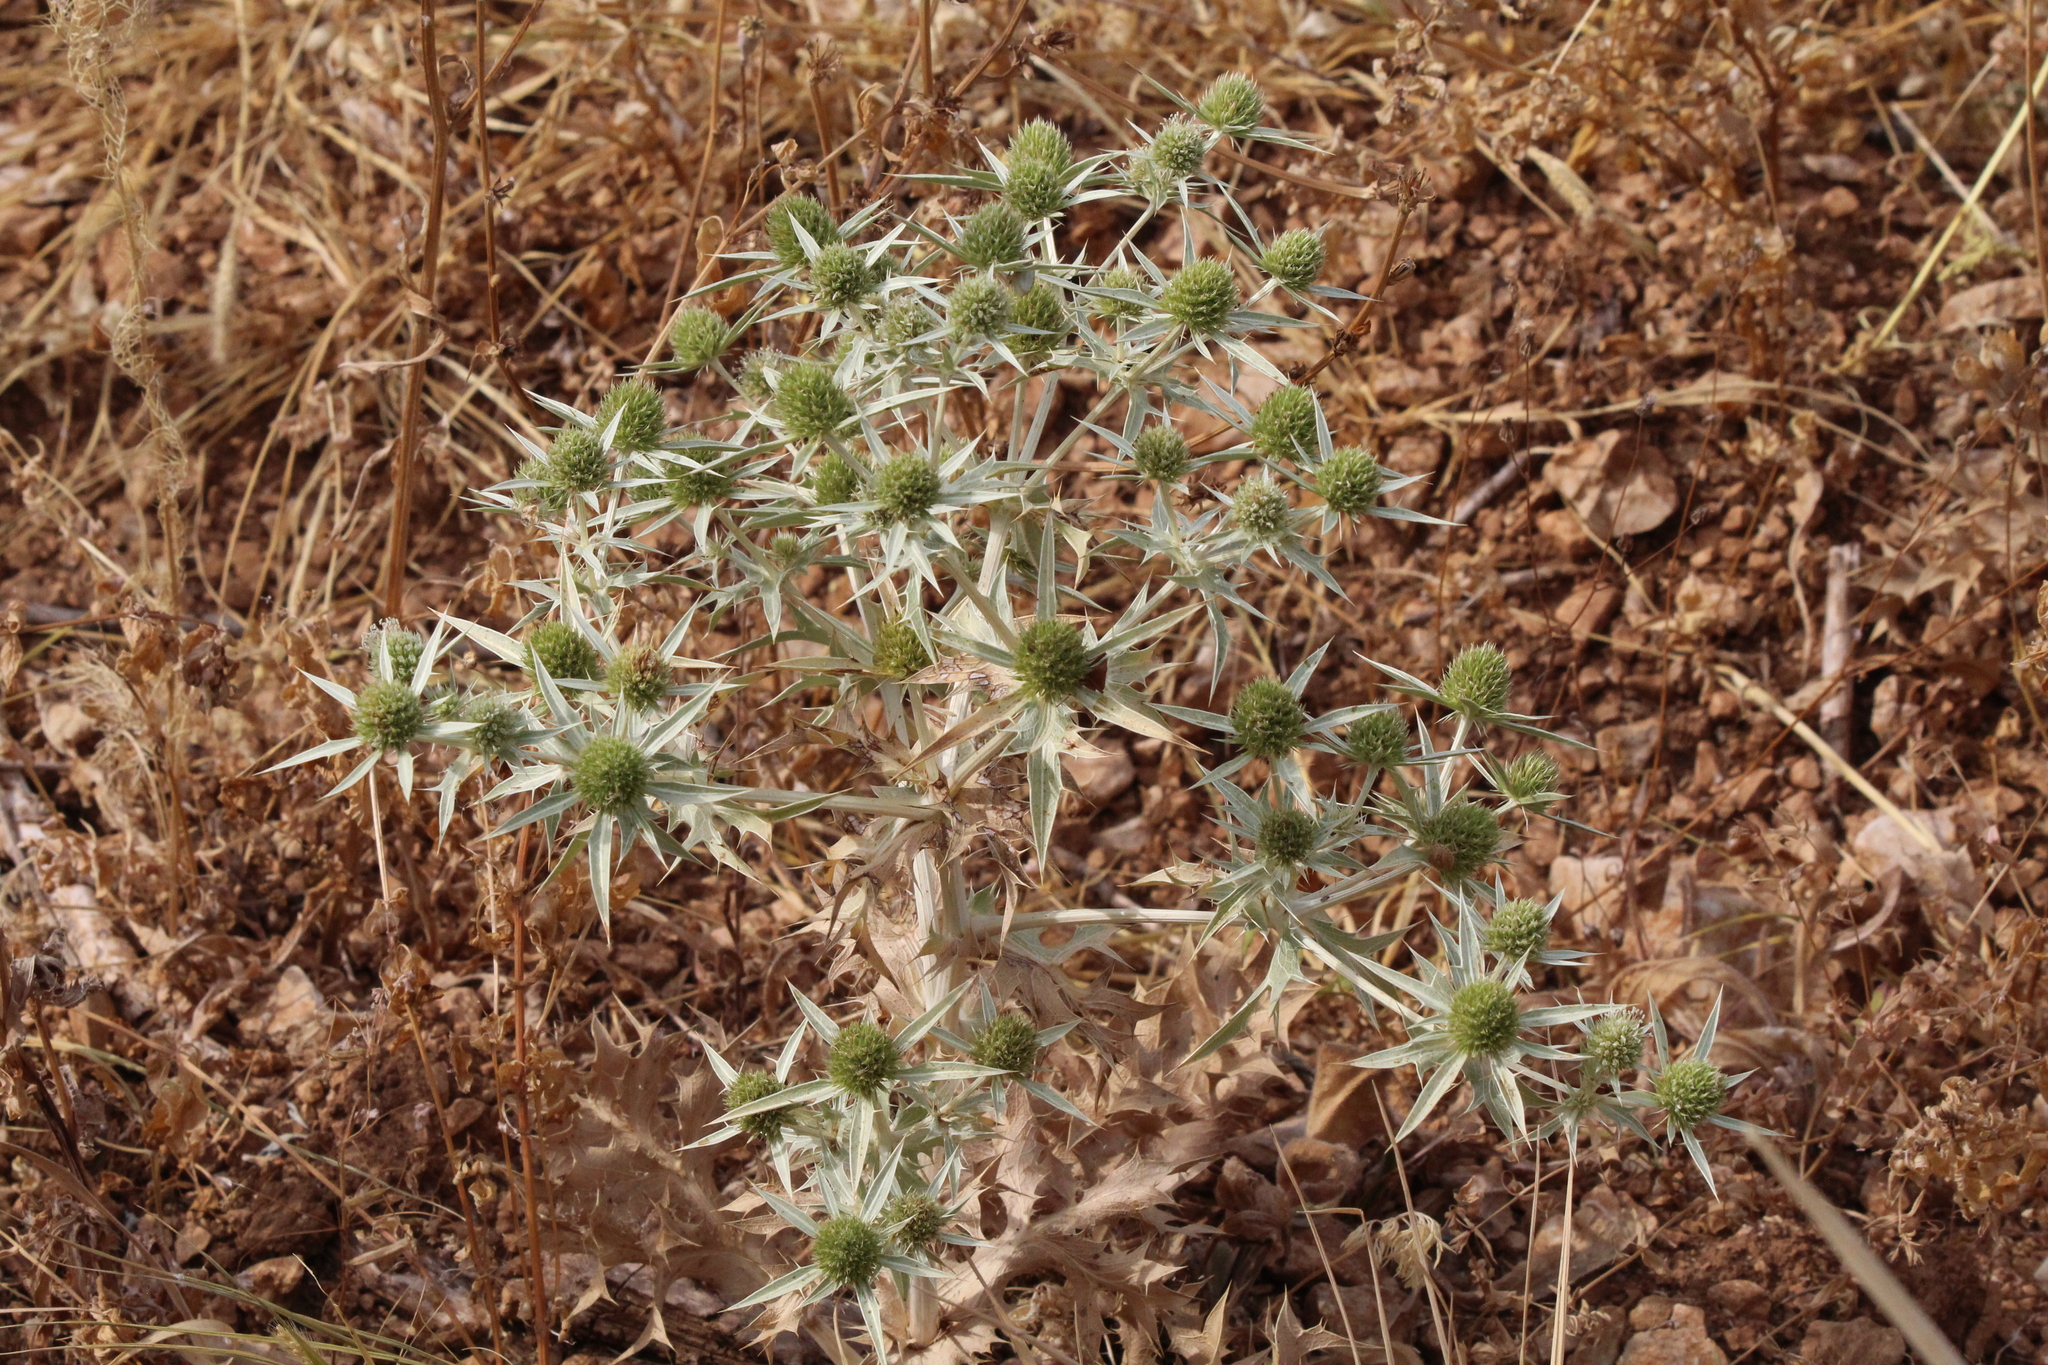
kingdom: Plantae
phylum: Tracheophyta
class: Magnoliopsida
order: Apiales
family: Apiaceae
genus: Eryngium
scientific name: Eryngium campestre
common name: Field eryngo
